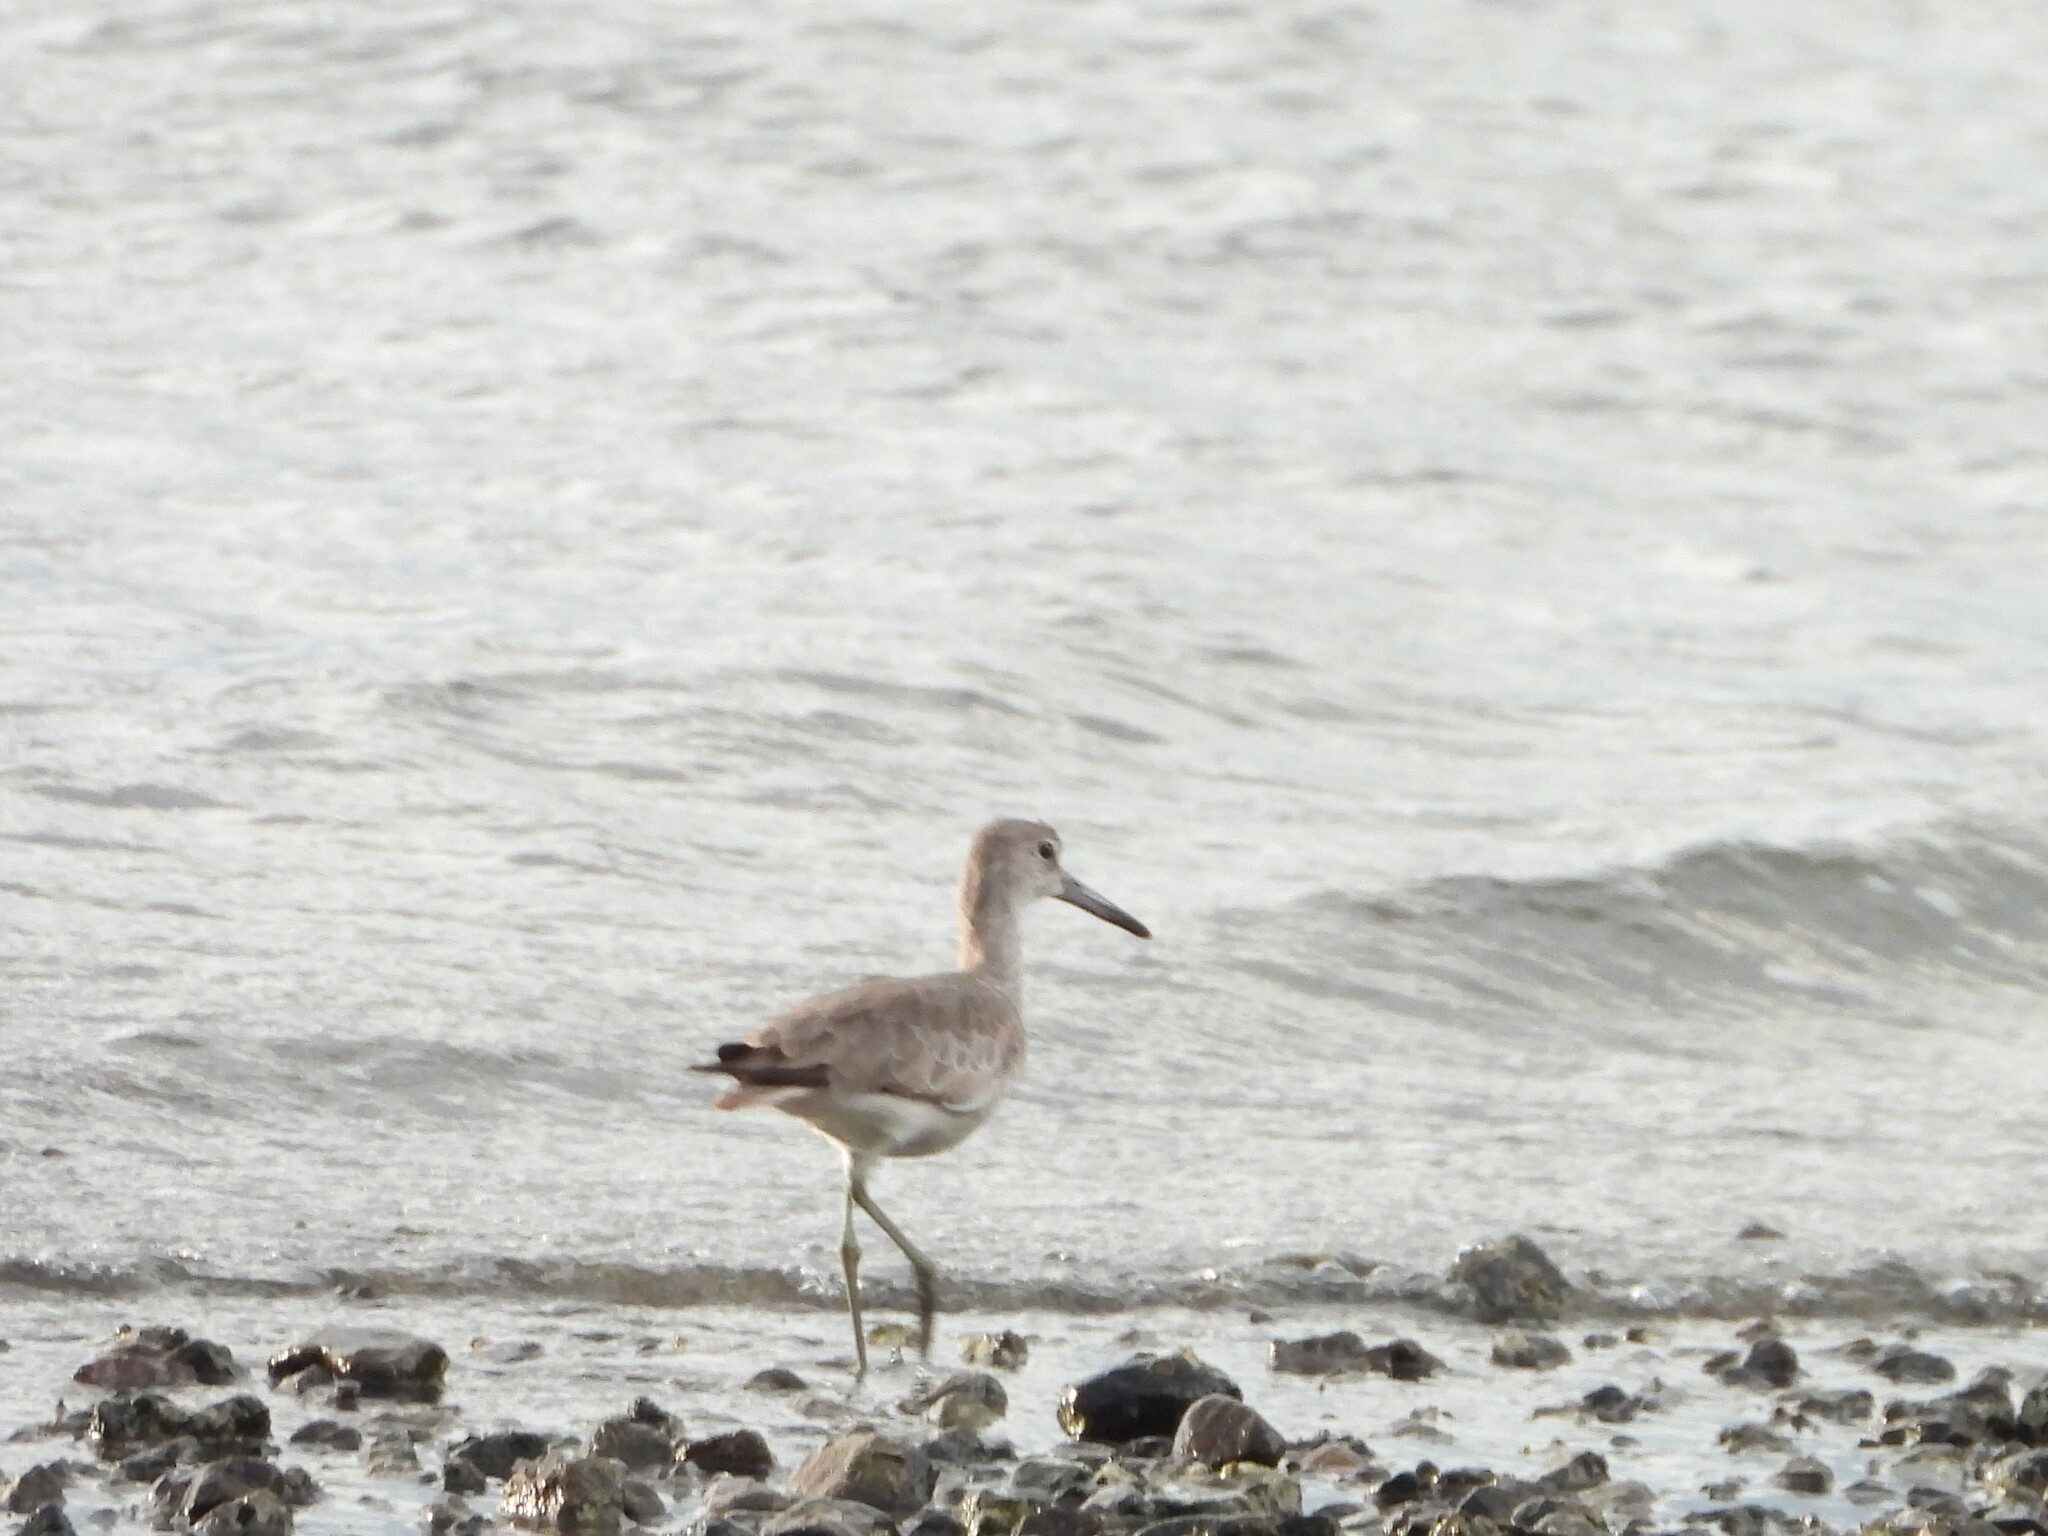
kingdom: Animalia
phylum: Chordata
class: Aves
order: Charadriiformes
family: Scolopacidae
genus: Tringa
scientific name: Tringa semipalmata
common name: Willet
